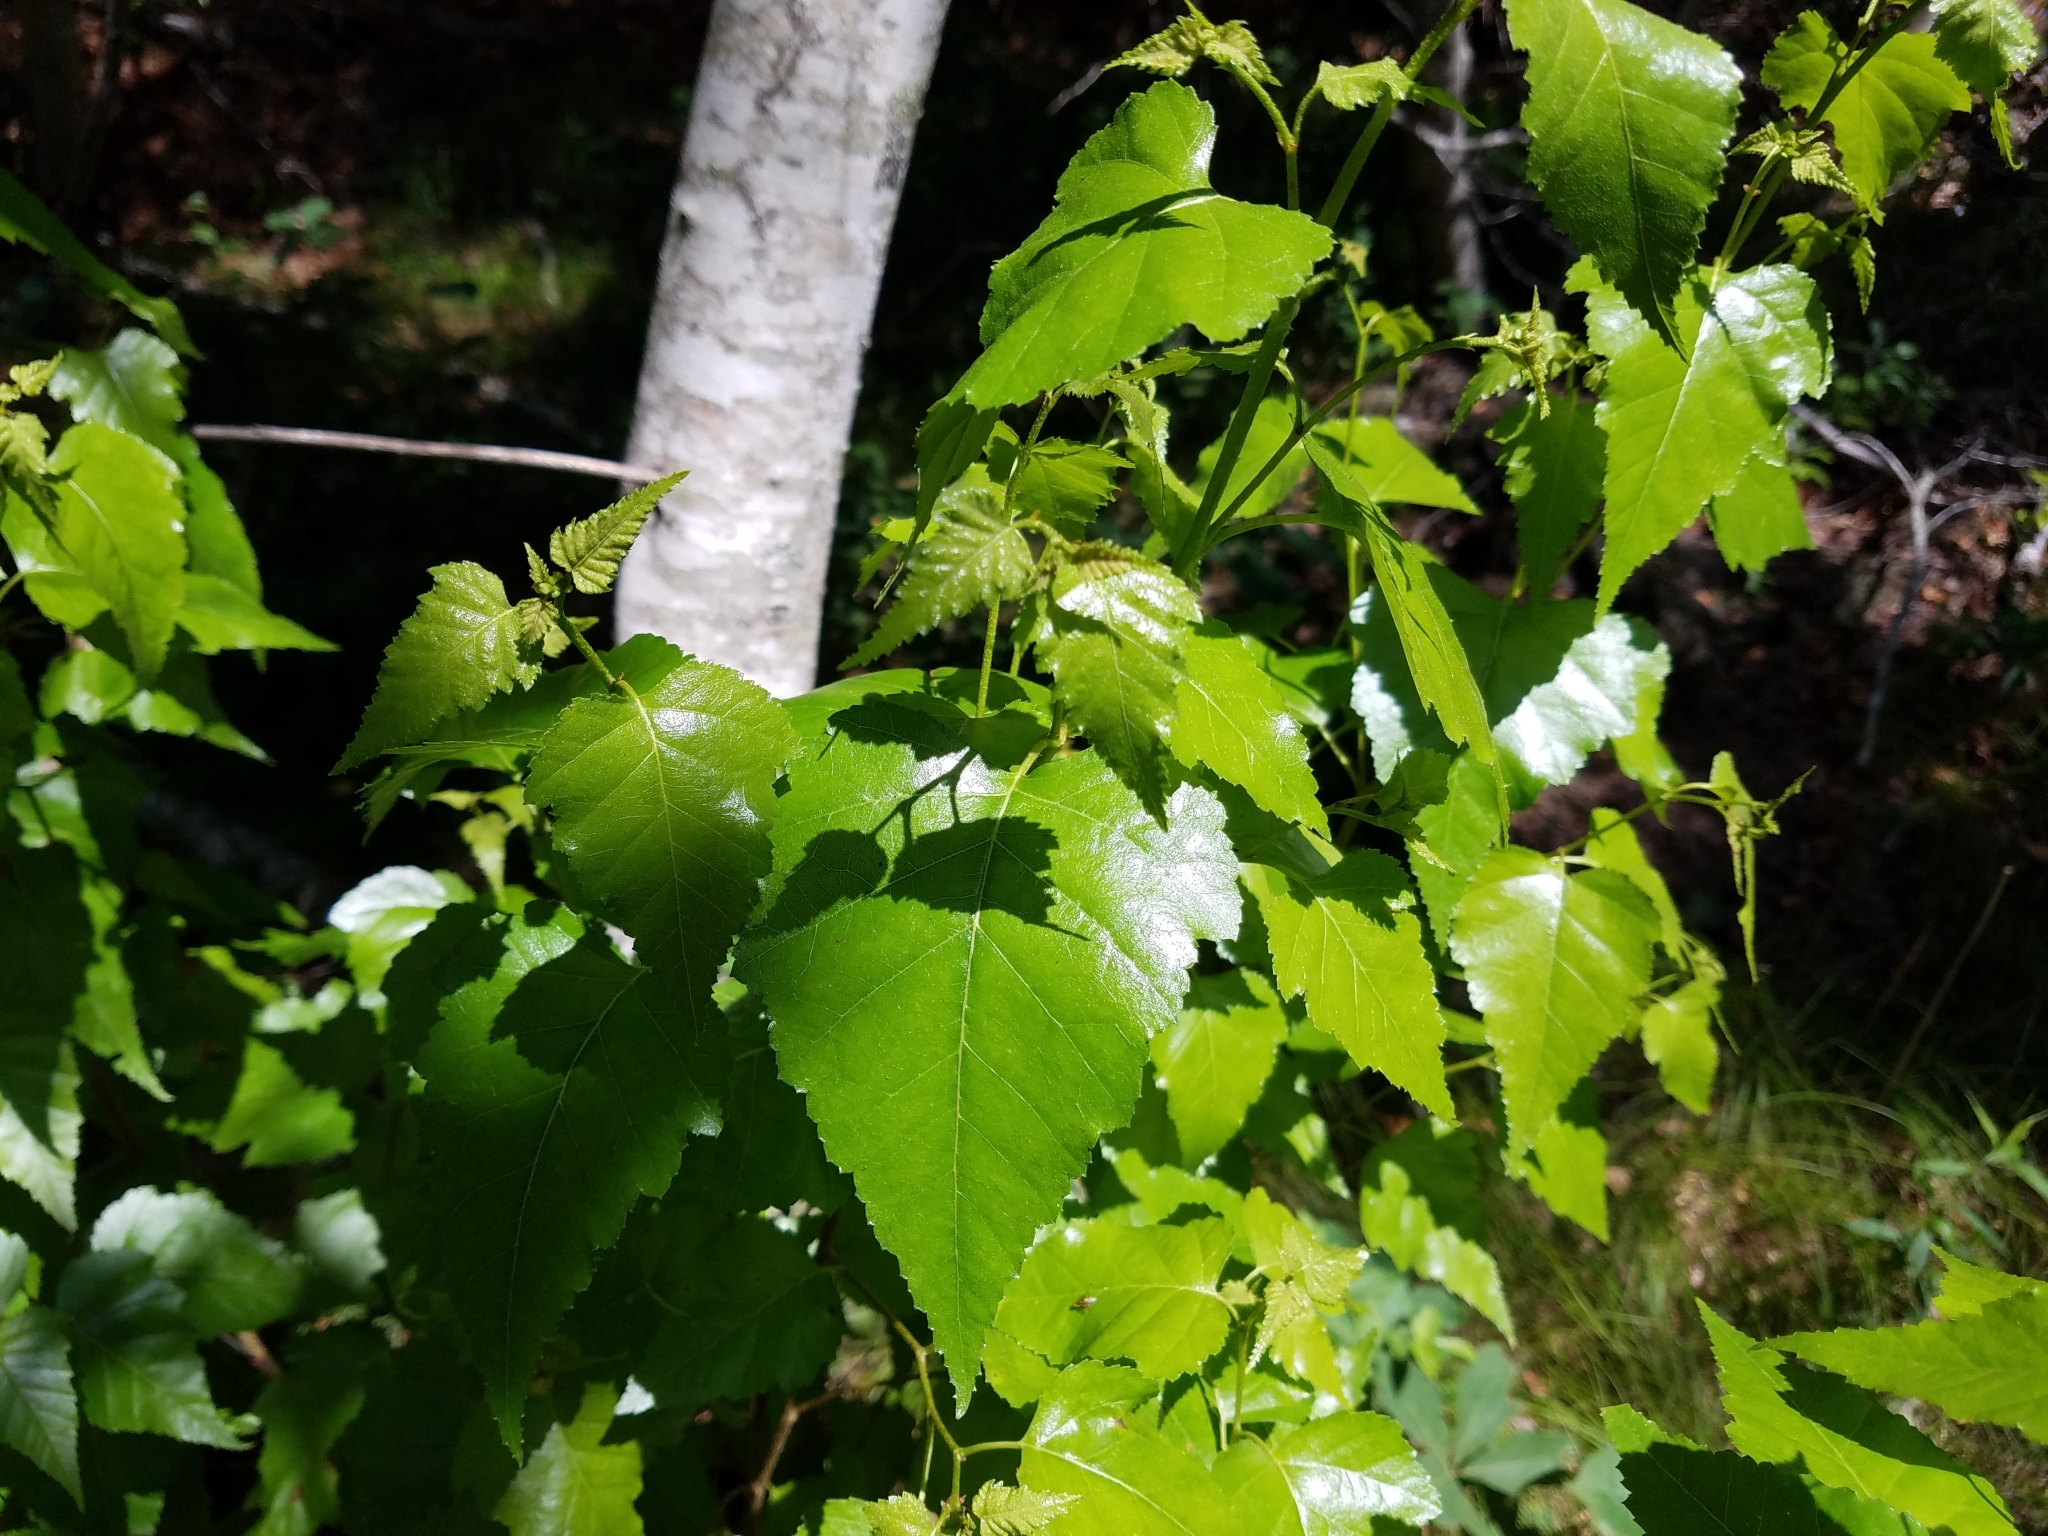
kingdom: Plantae
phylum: Tracheophyta
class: Magnoliopsida
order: Fagales
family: Betulaceae
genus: Betula
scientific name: Betula populifolia
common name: Fire birch
